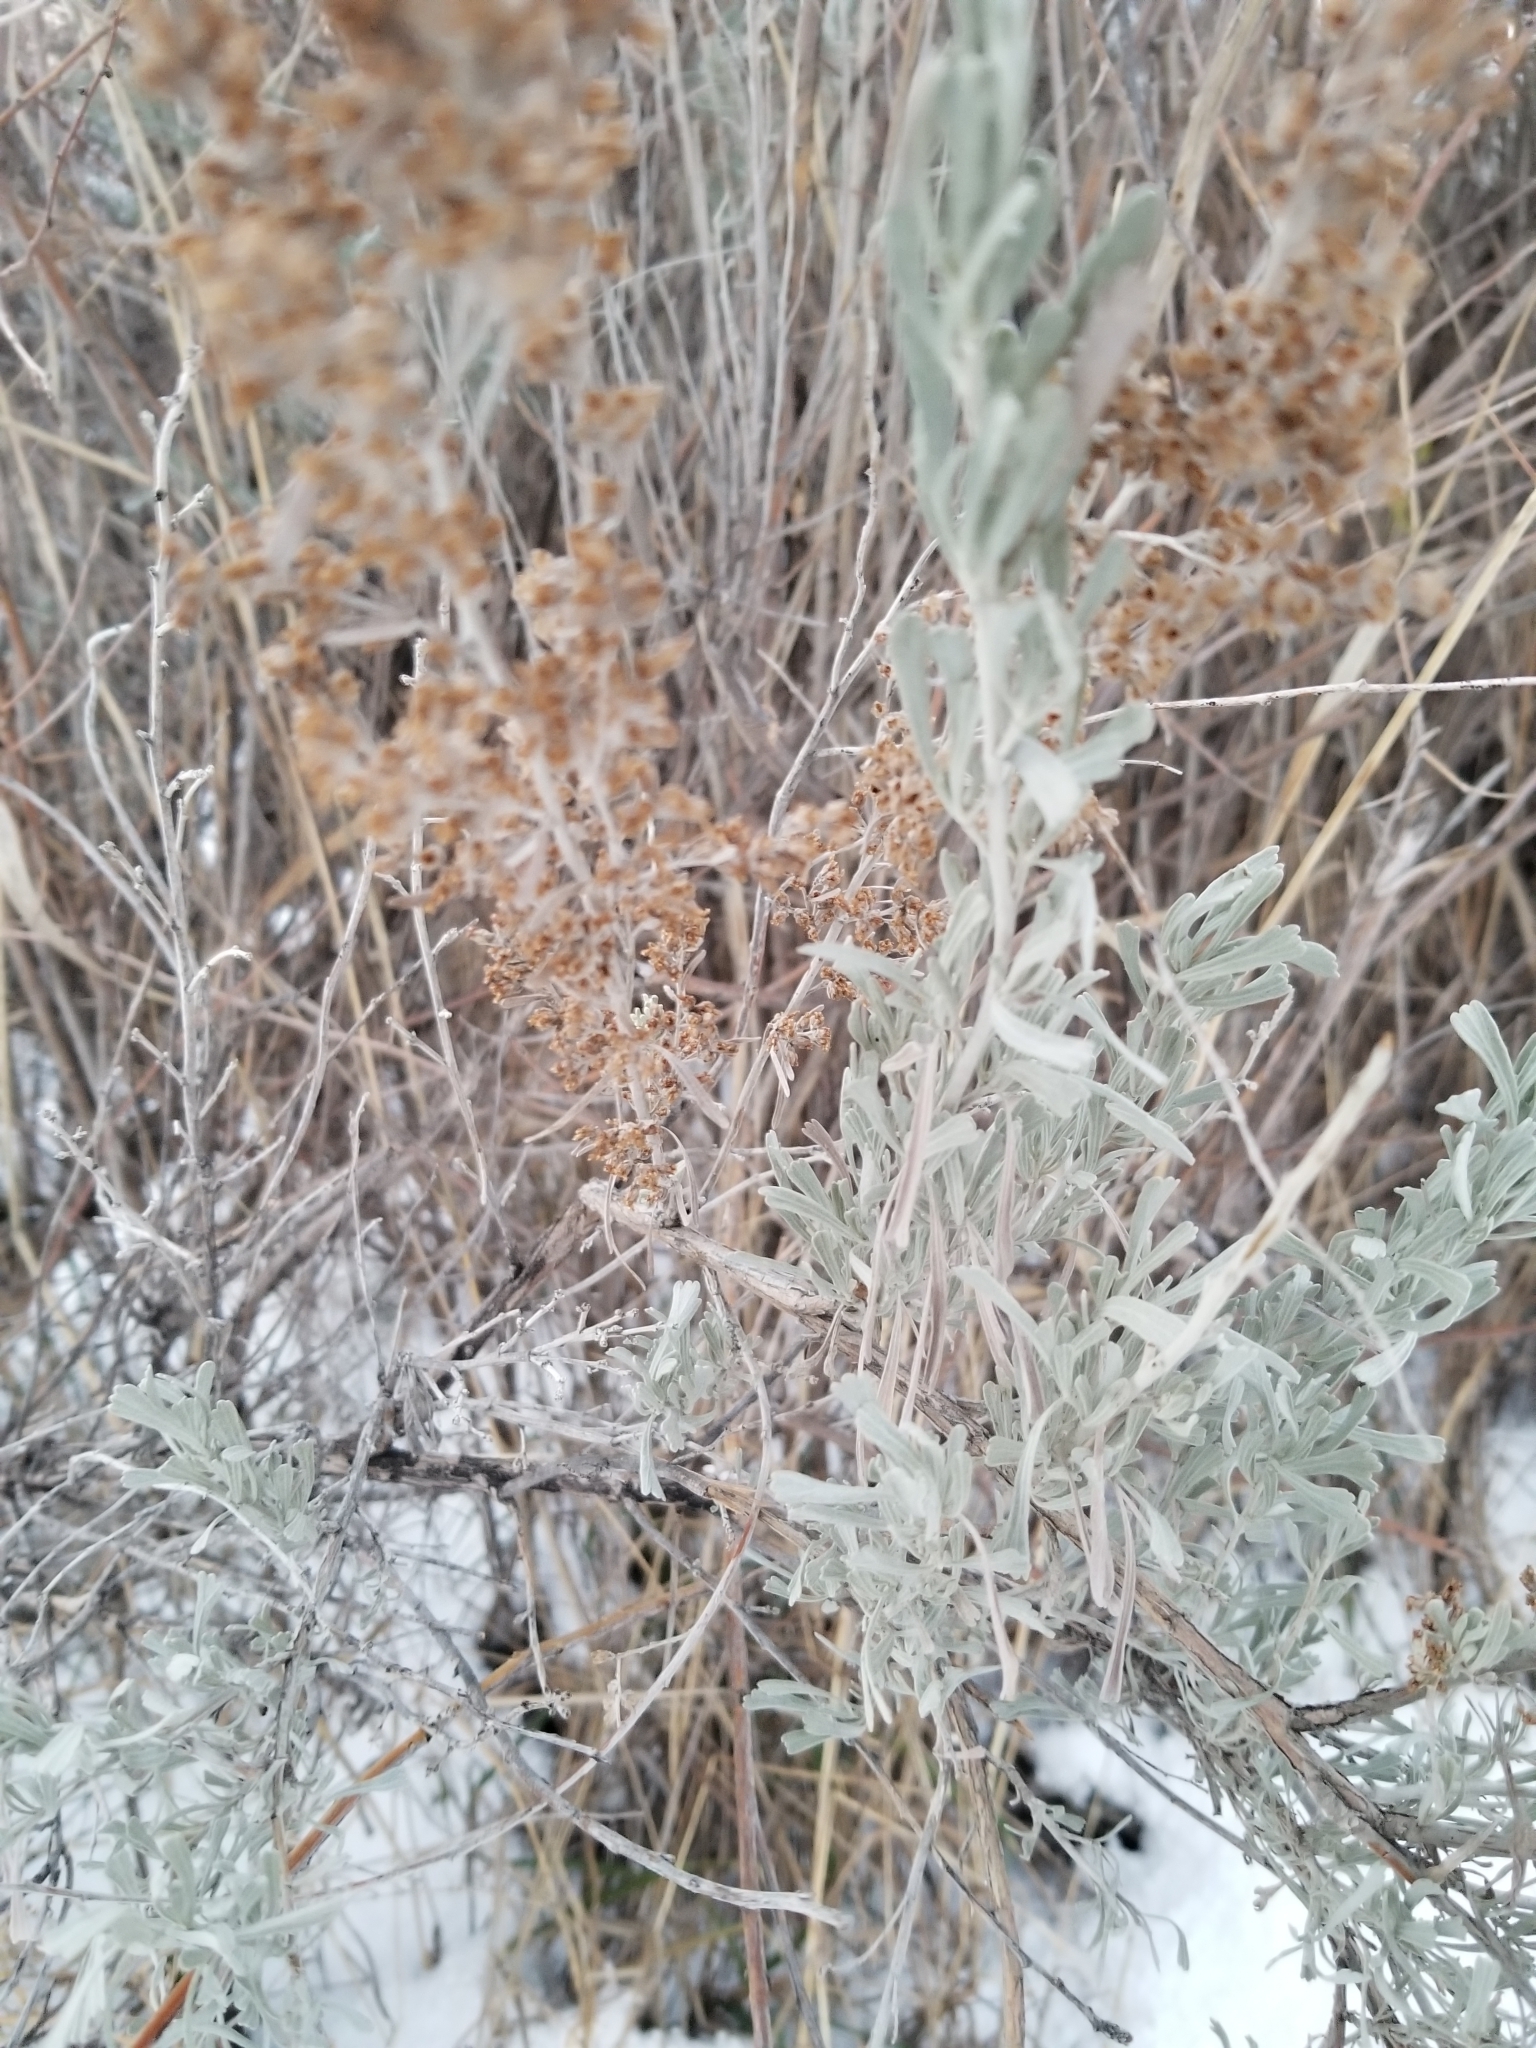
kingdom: Plantae
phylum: Tracheophyta
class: Magnoliopsida
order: Asterales
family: Asteraceae
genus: Artemisia
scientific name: Artemisia tridentata
